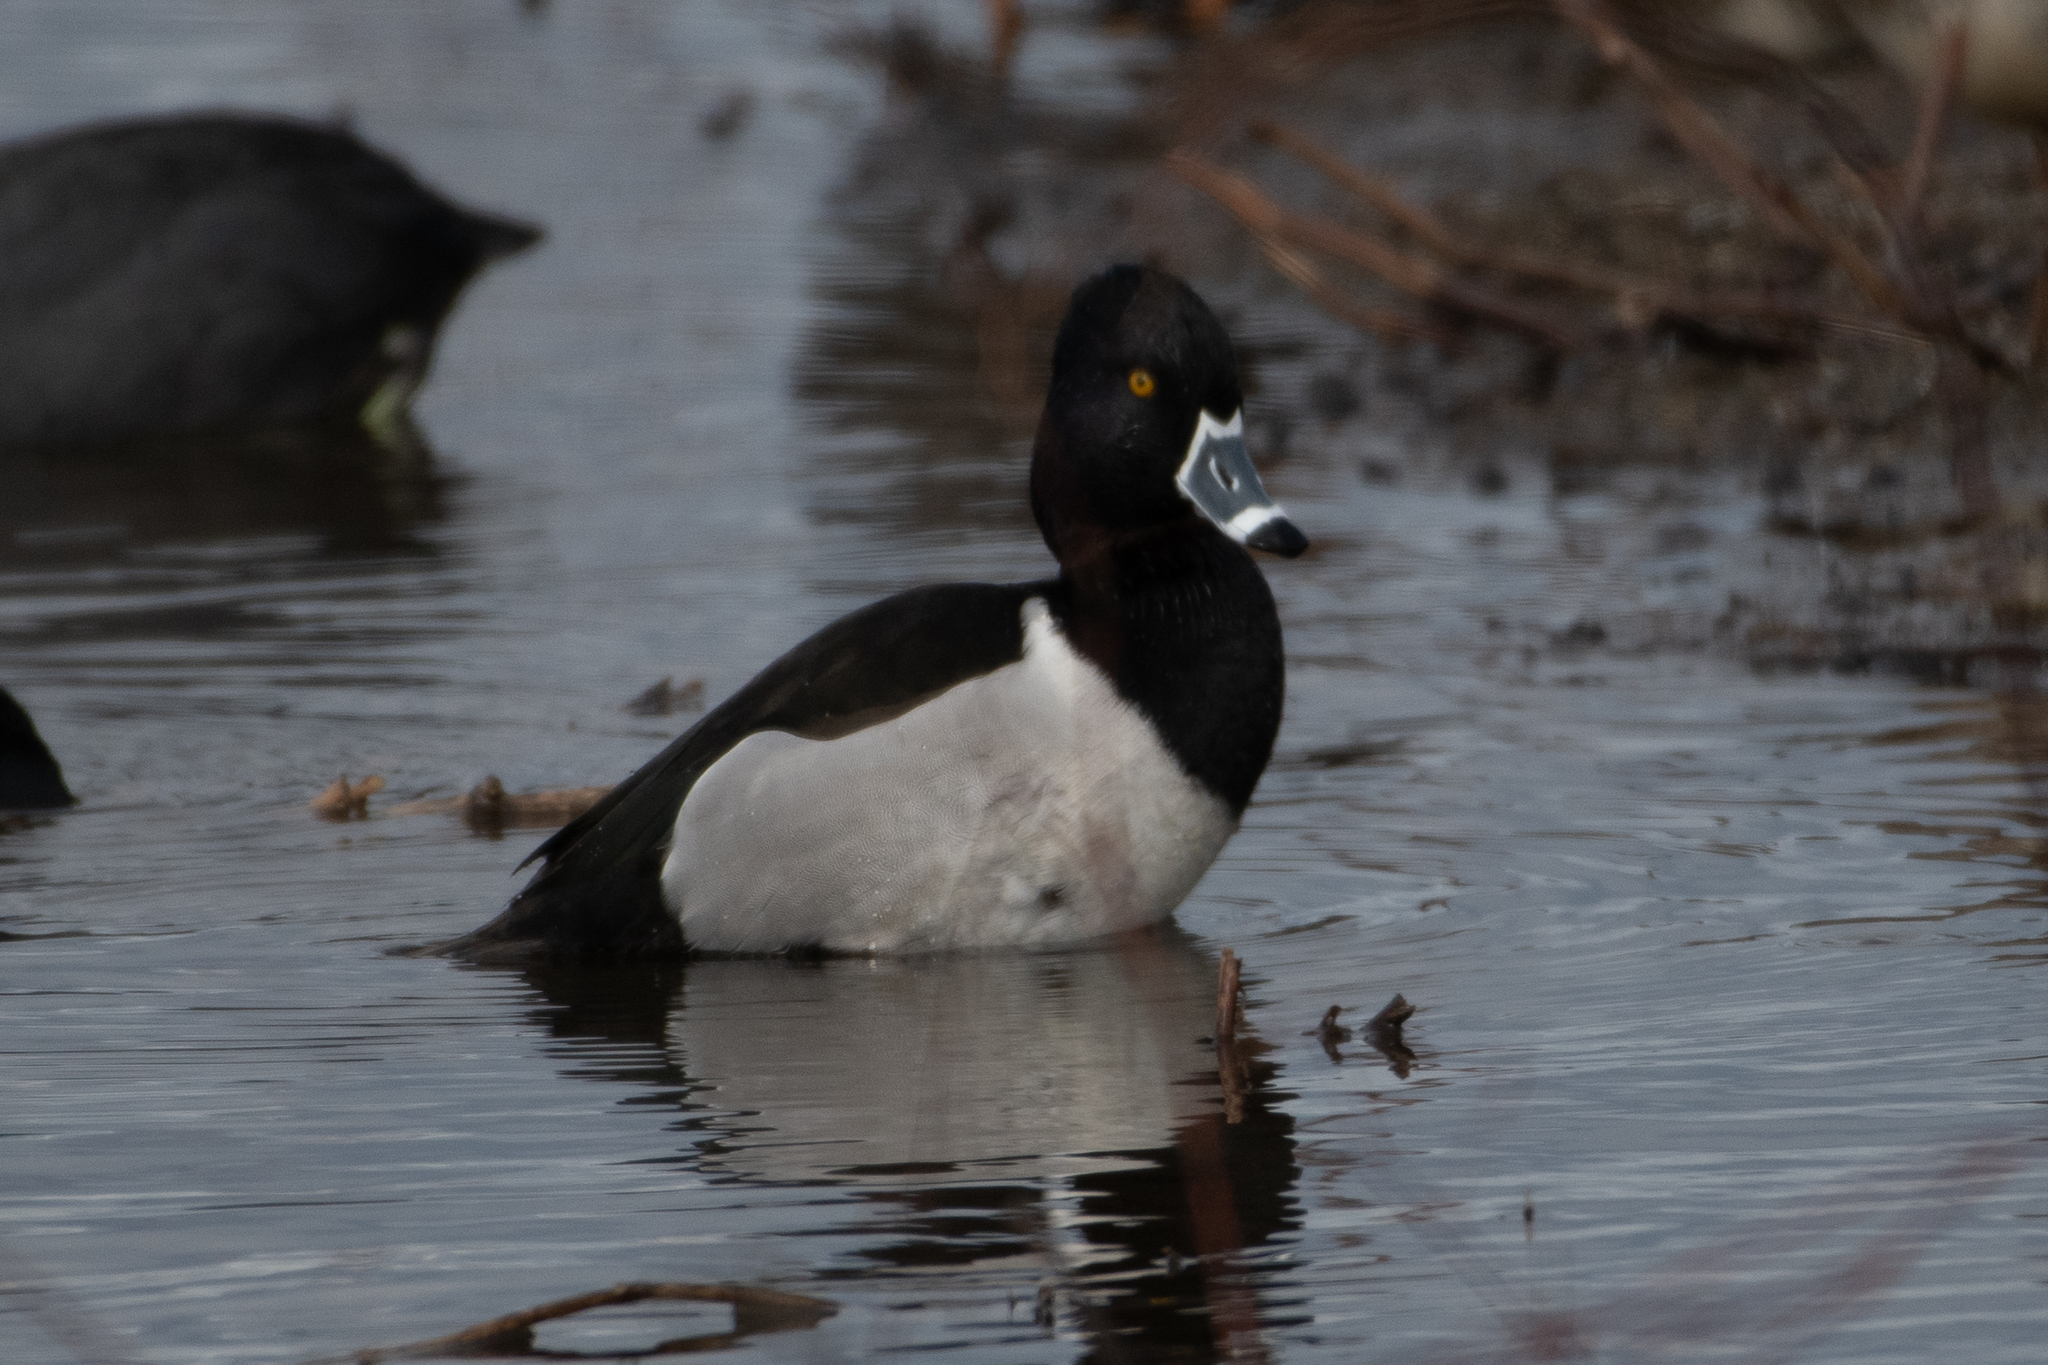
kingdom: Animalia
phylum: Chordata
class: Aves
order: Anseriformes
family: Anatidae
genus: Aythya
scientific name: Aythya collaris
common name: Ring-necked duck
